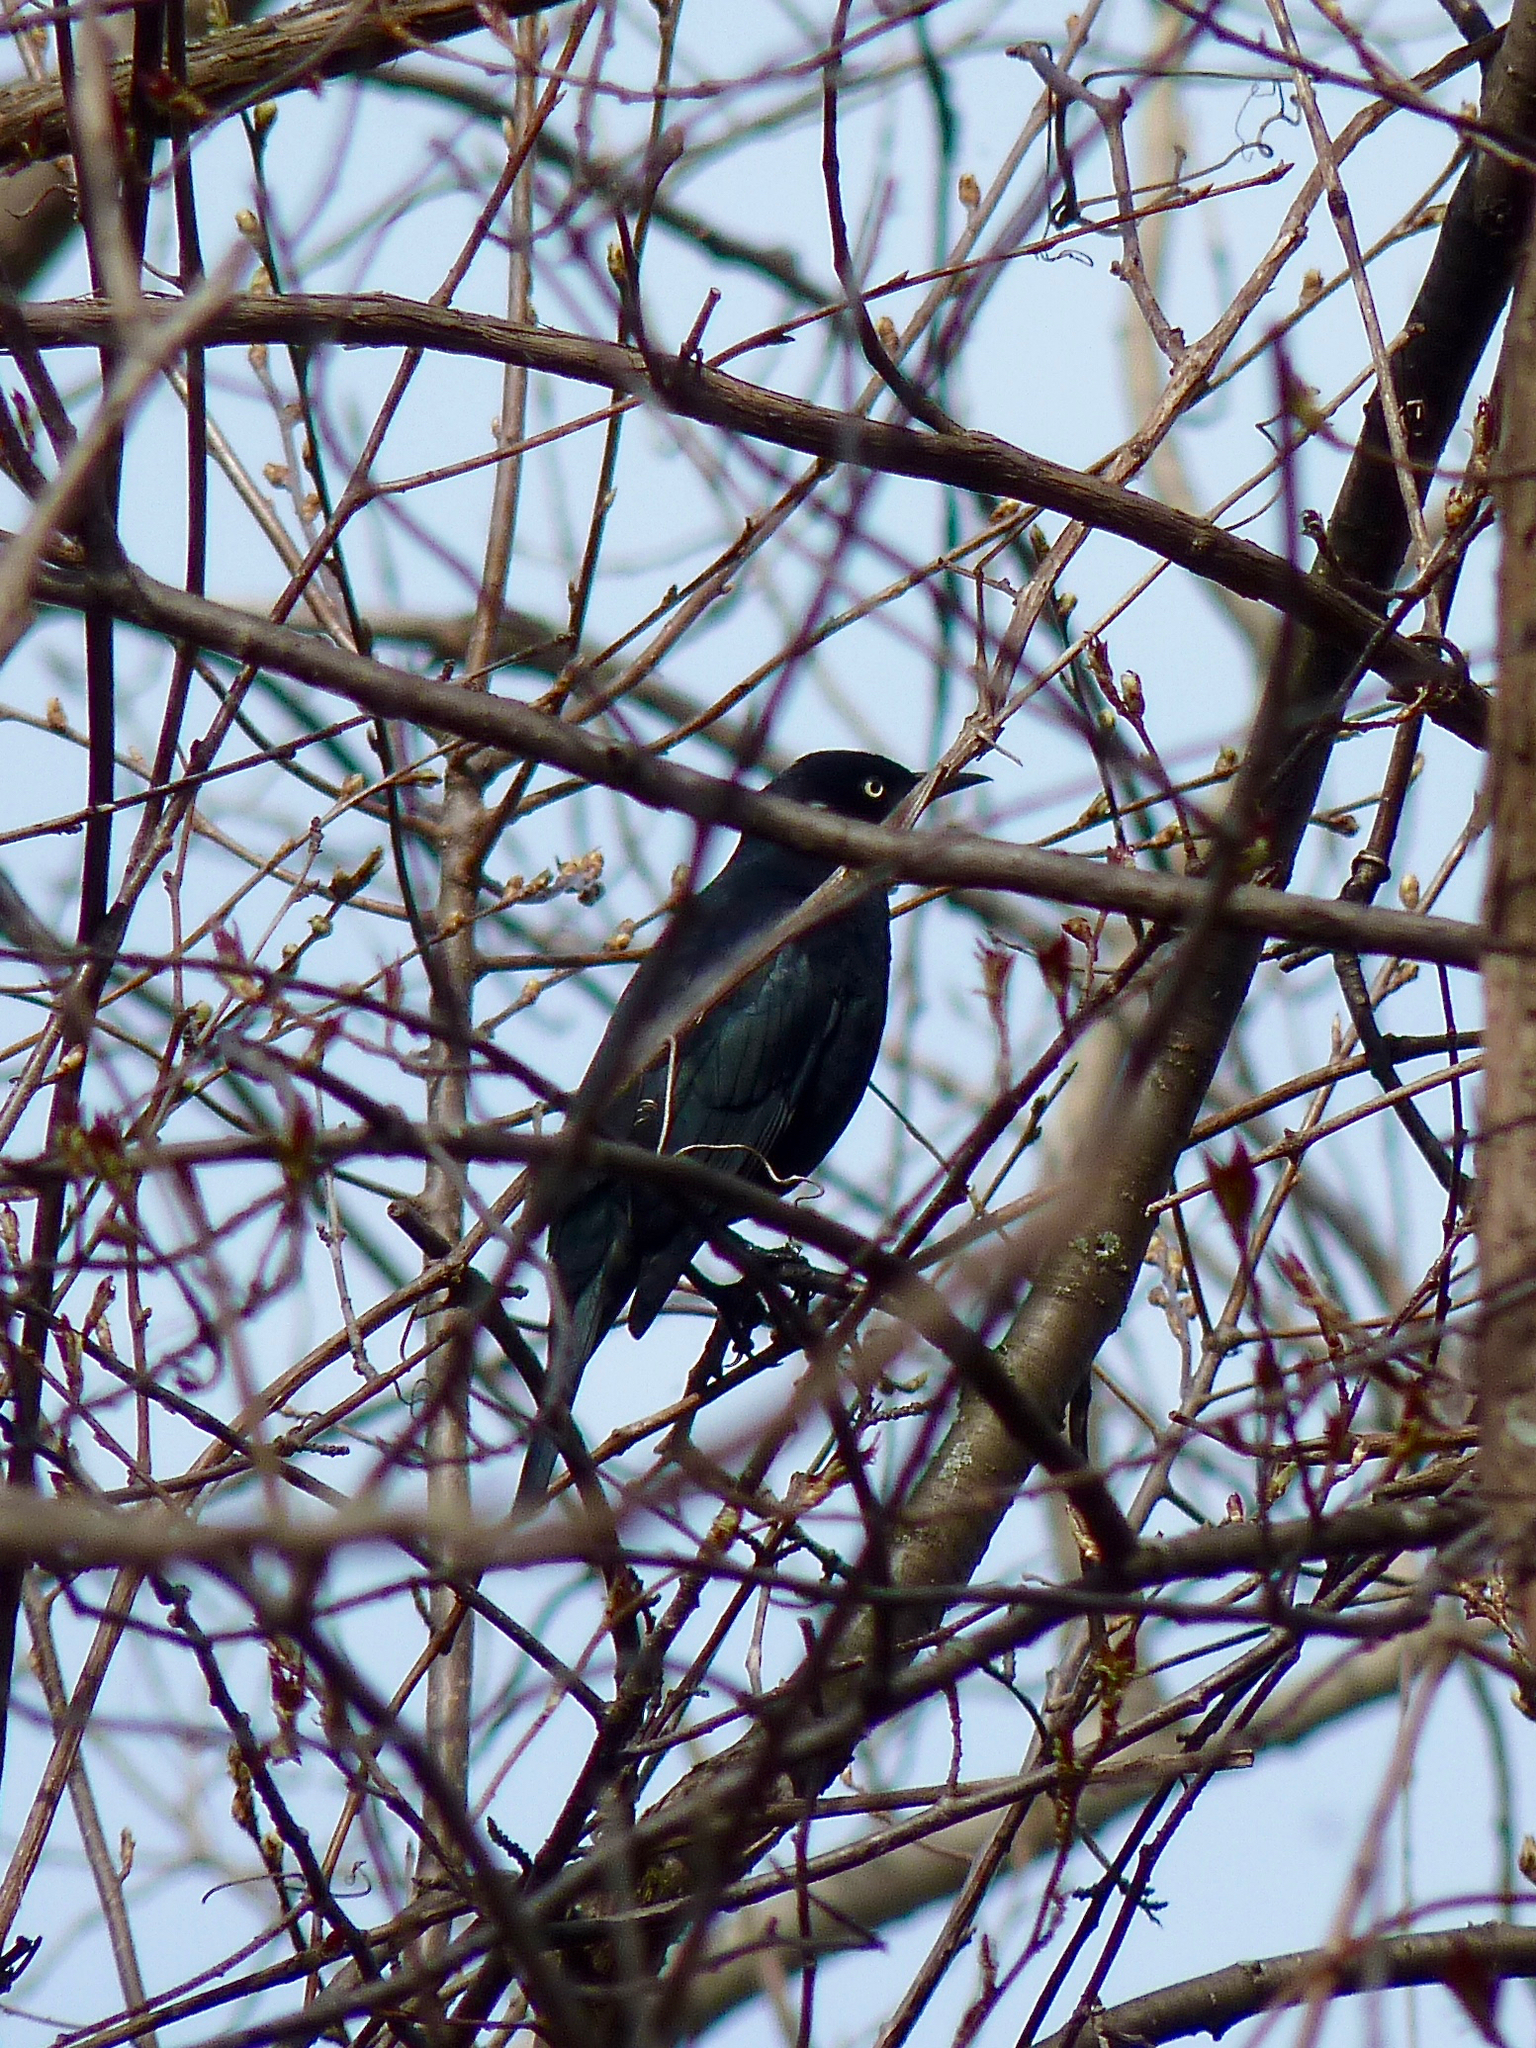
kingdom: Animalia
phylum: Chordata
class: Aves
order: Passeriformes
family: Icteridae
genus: Euphagus
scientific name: Euphagus carolinus
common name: Rusty blackbird
